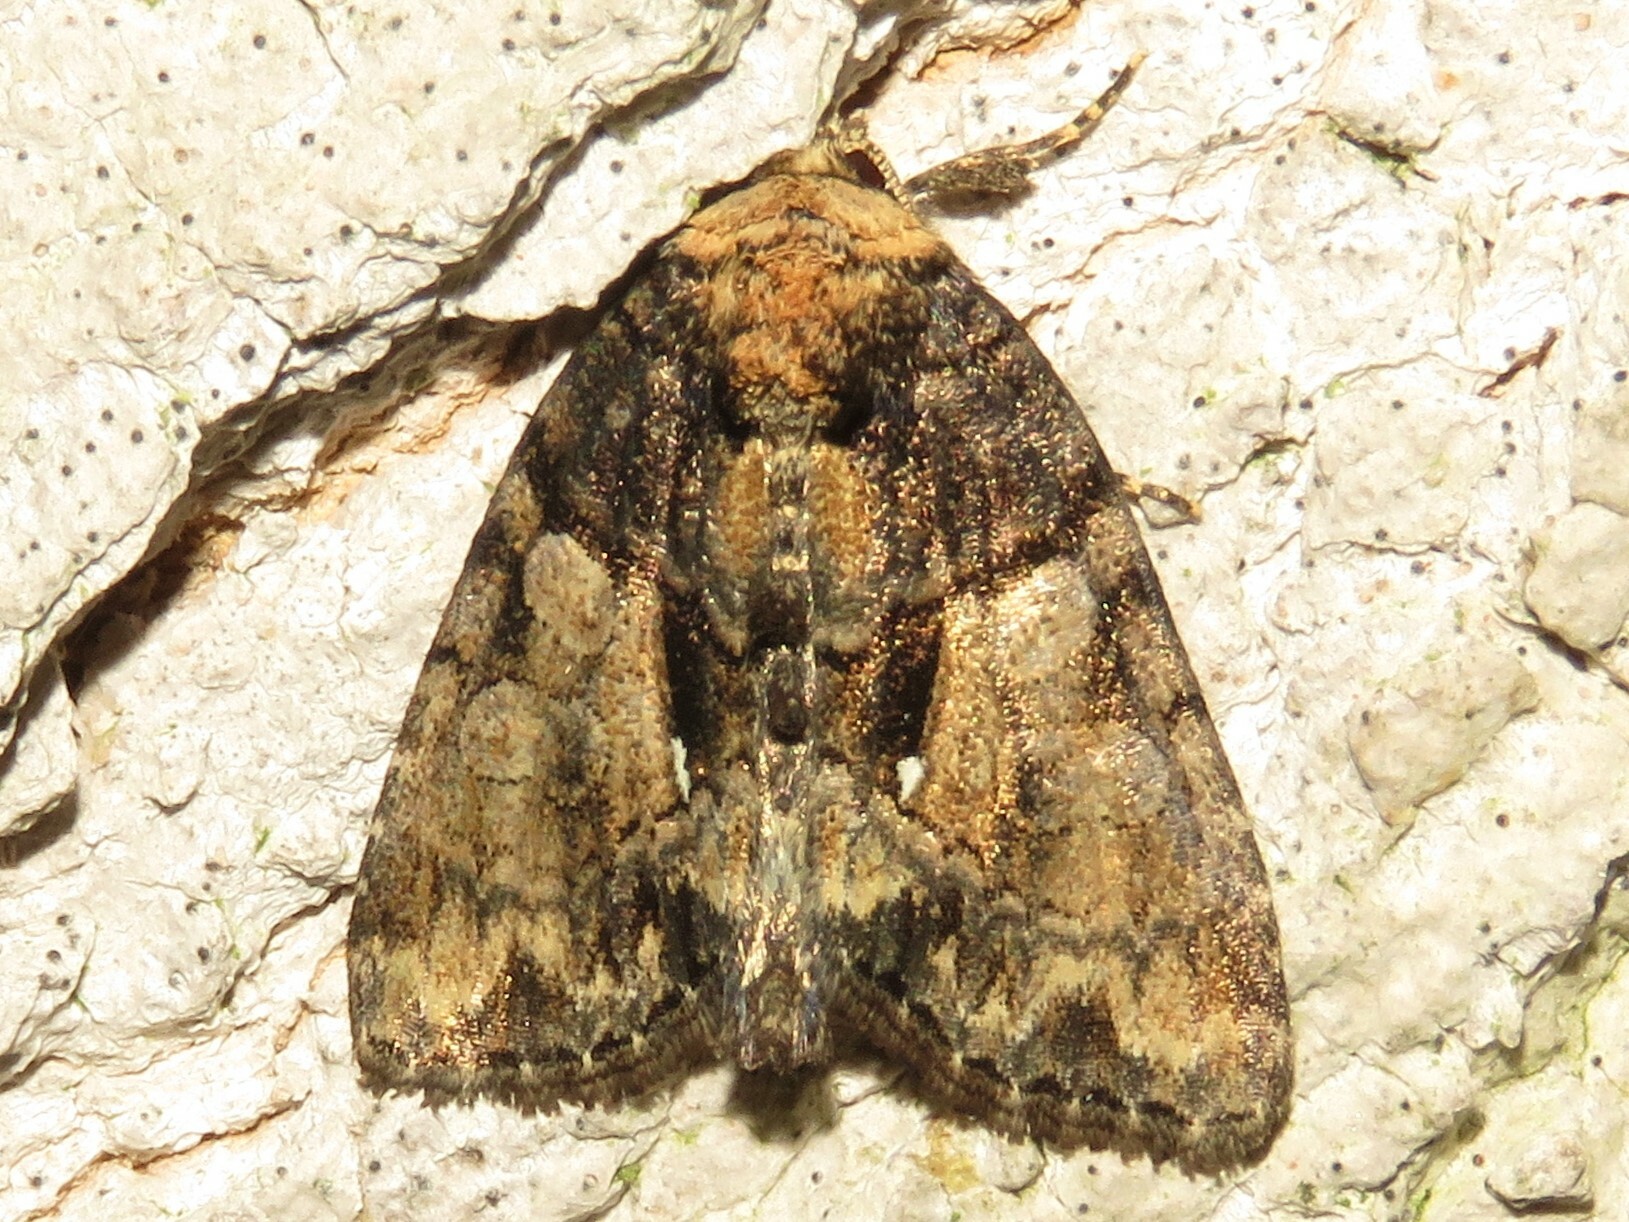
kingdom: Animalia
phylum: Arthropoda
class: Insecta
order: Lepidoptera
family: Noctuidae
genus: Chytonix
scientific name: Chytonix palliatricula
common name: Cloaked marvel
